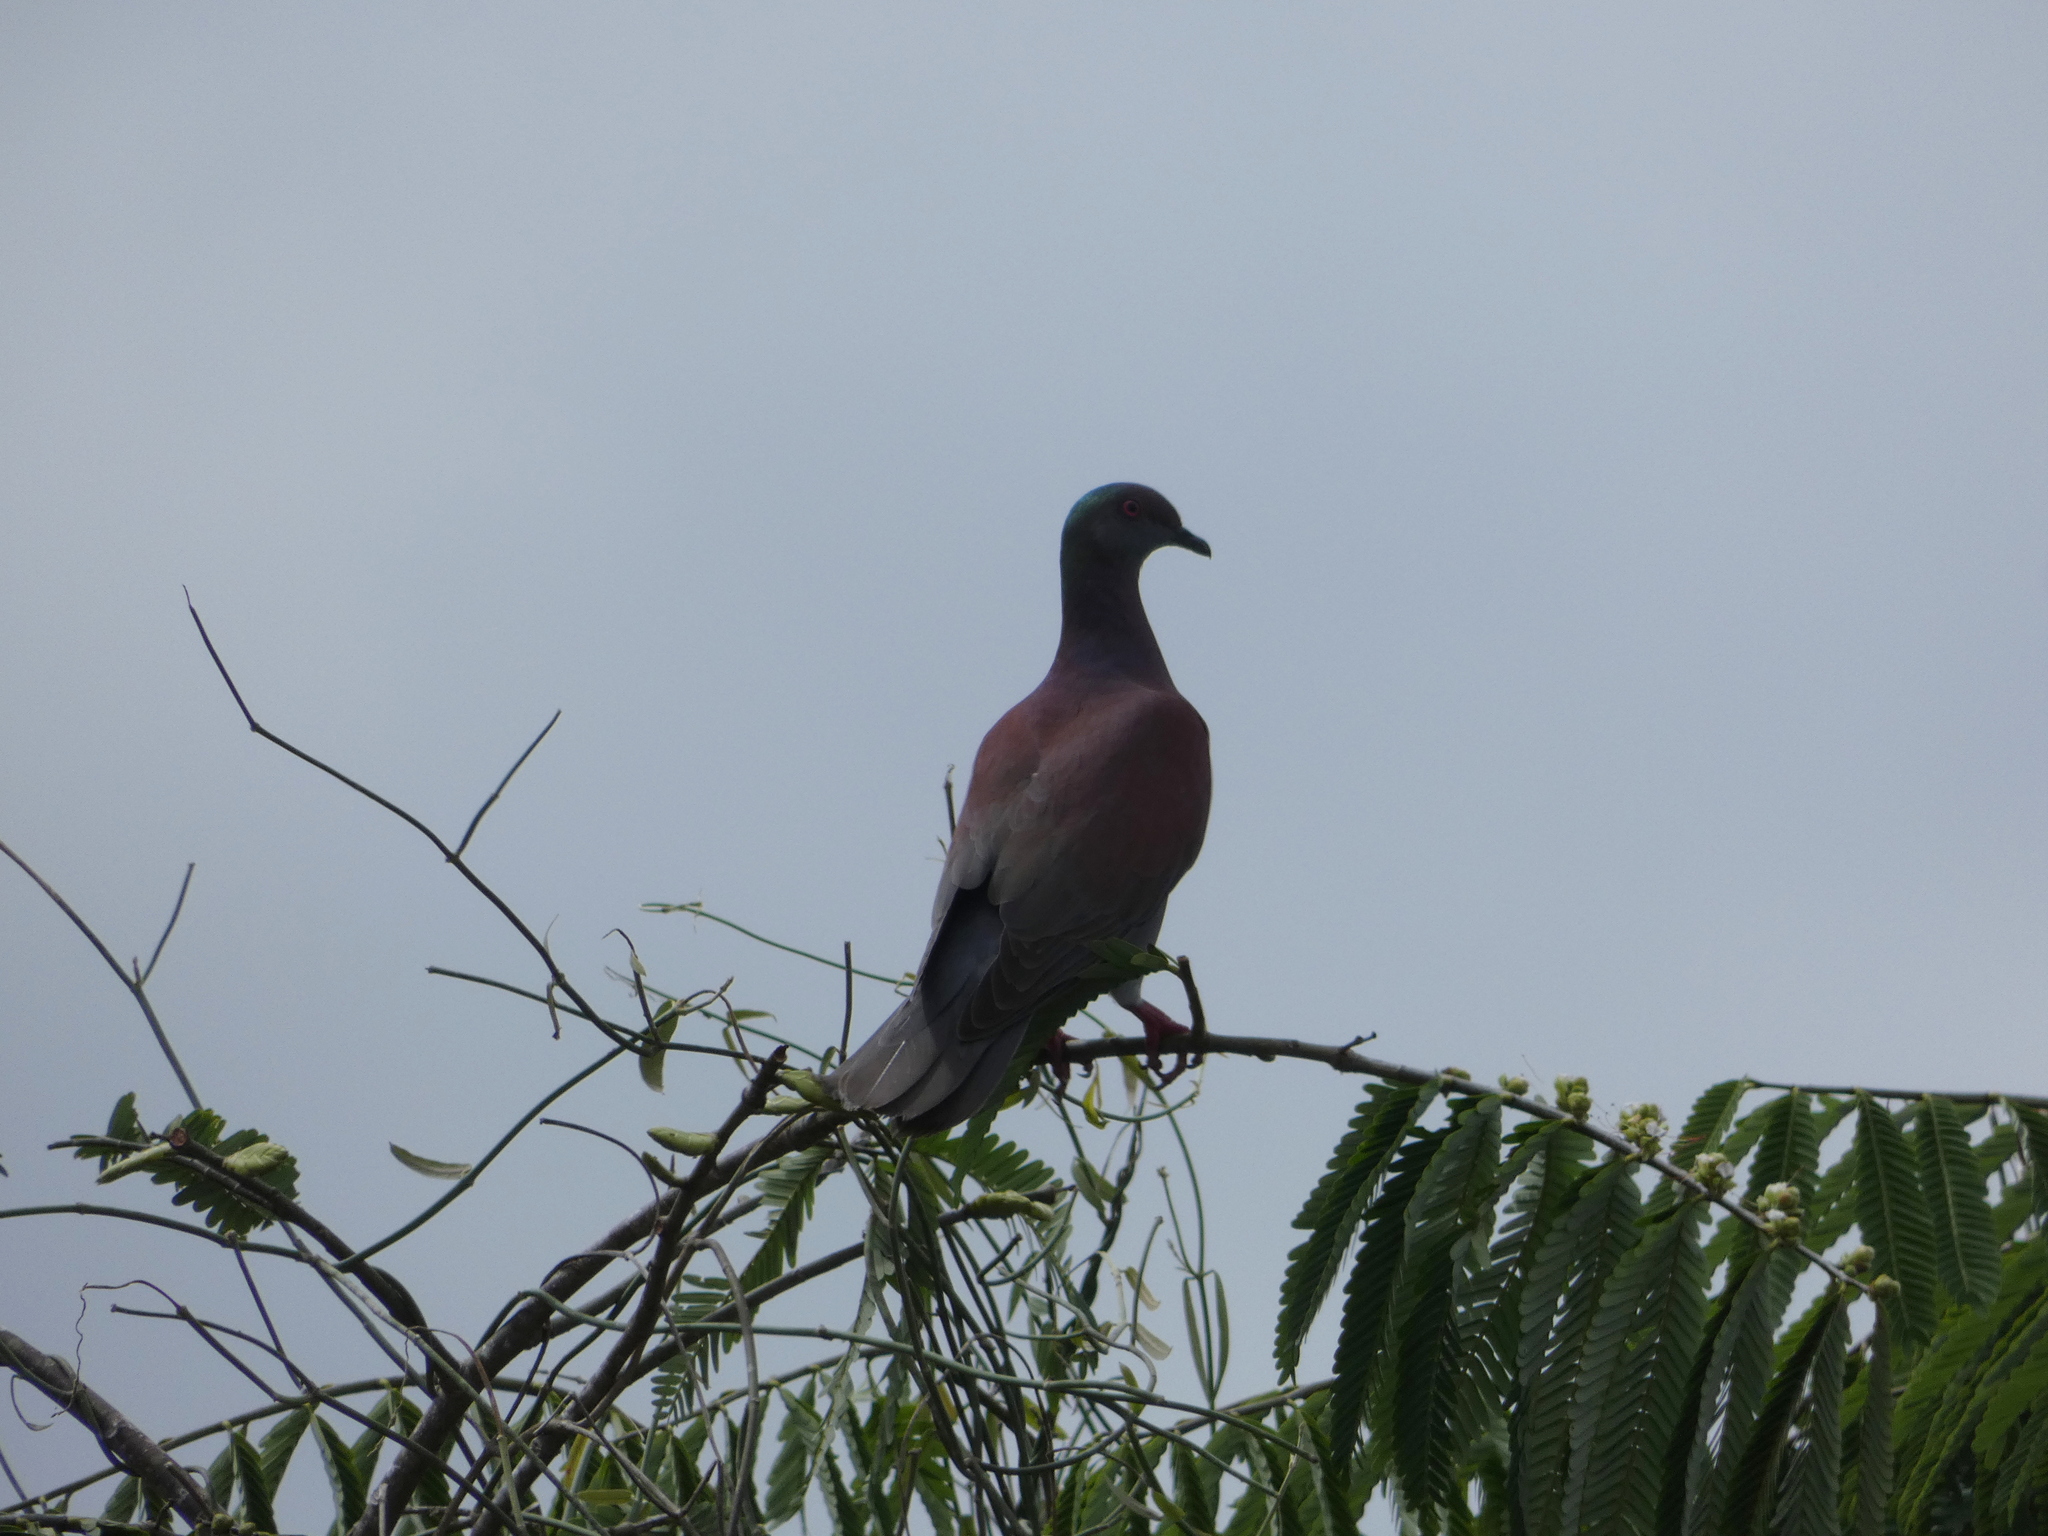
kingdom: Animalia
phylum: Chordata
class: Aves
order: Columbiformes
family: Columbidae
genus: Patagioenas
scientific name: Patagioenas cayennensis
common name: Pale-vented pigeon
